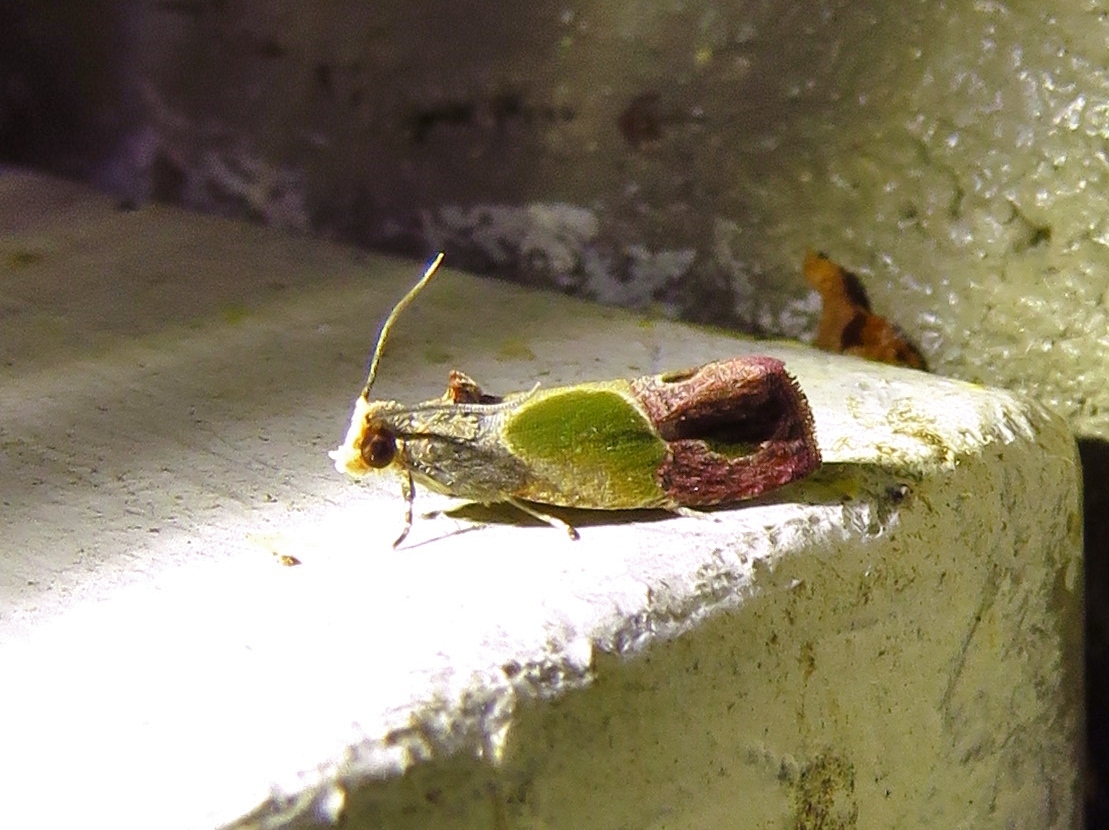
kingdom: Animalia
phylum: Arthropoda
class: Insecta
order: Lepidoptera
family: Tortricidae
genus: Eumarozia
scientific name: Eumarozia malachitana
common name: Sculptured moth
